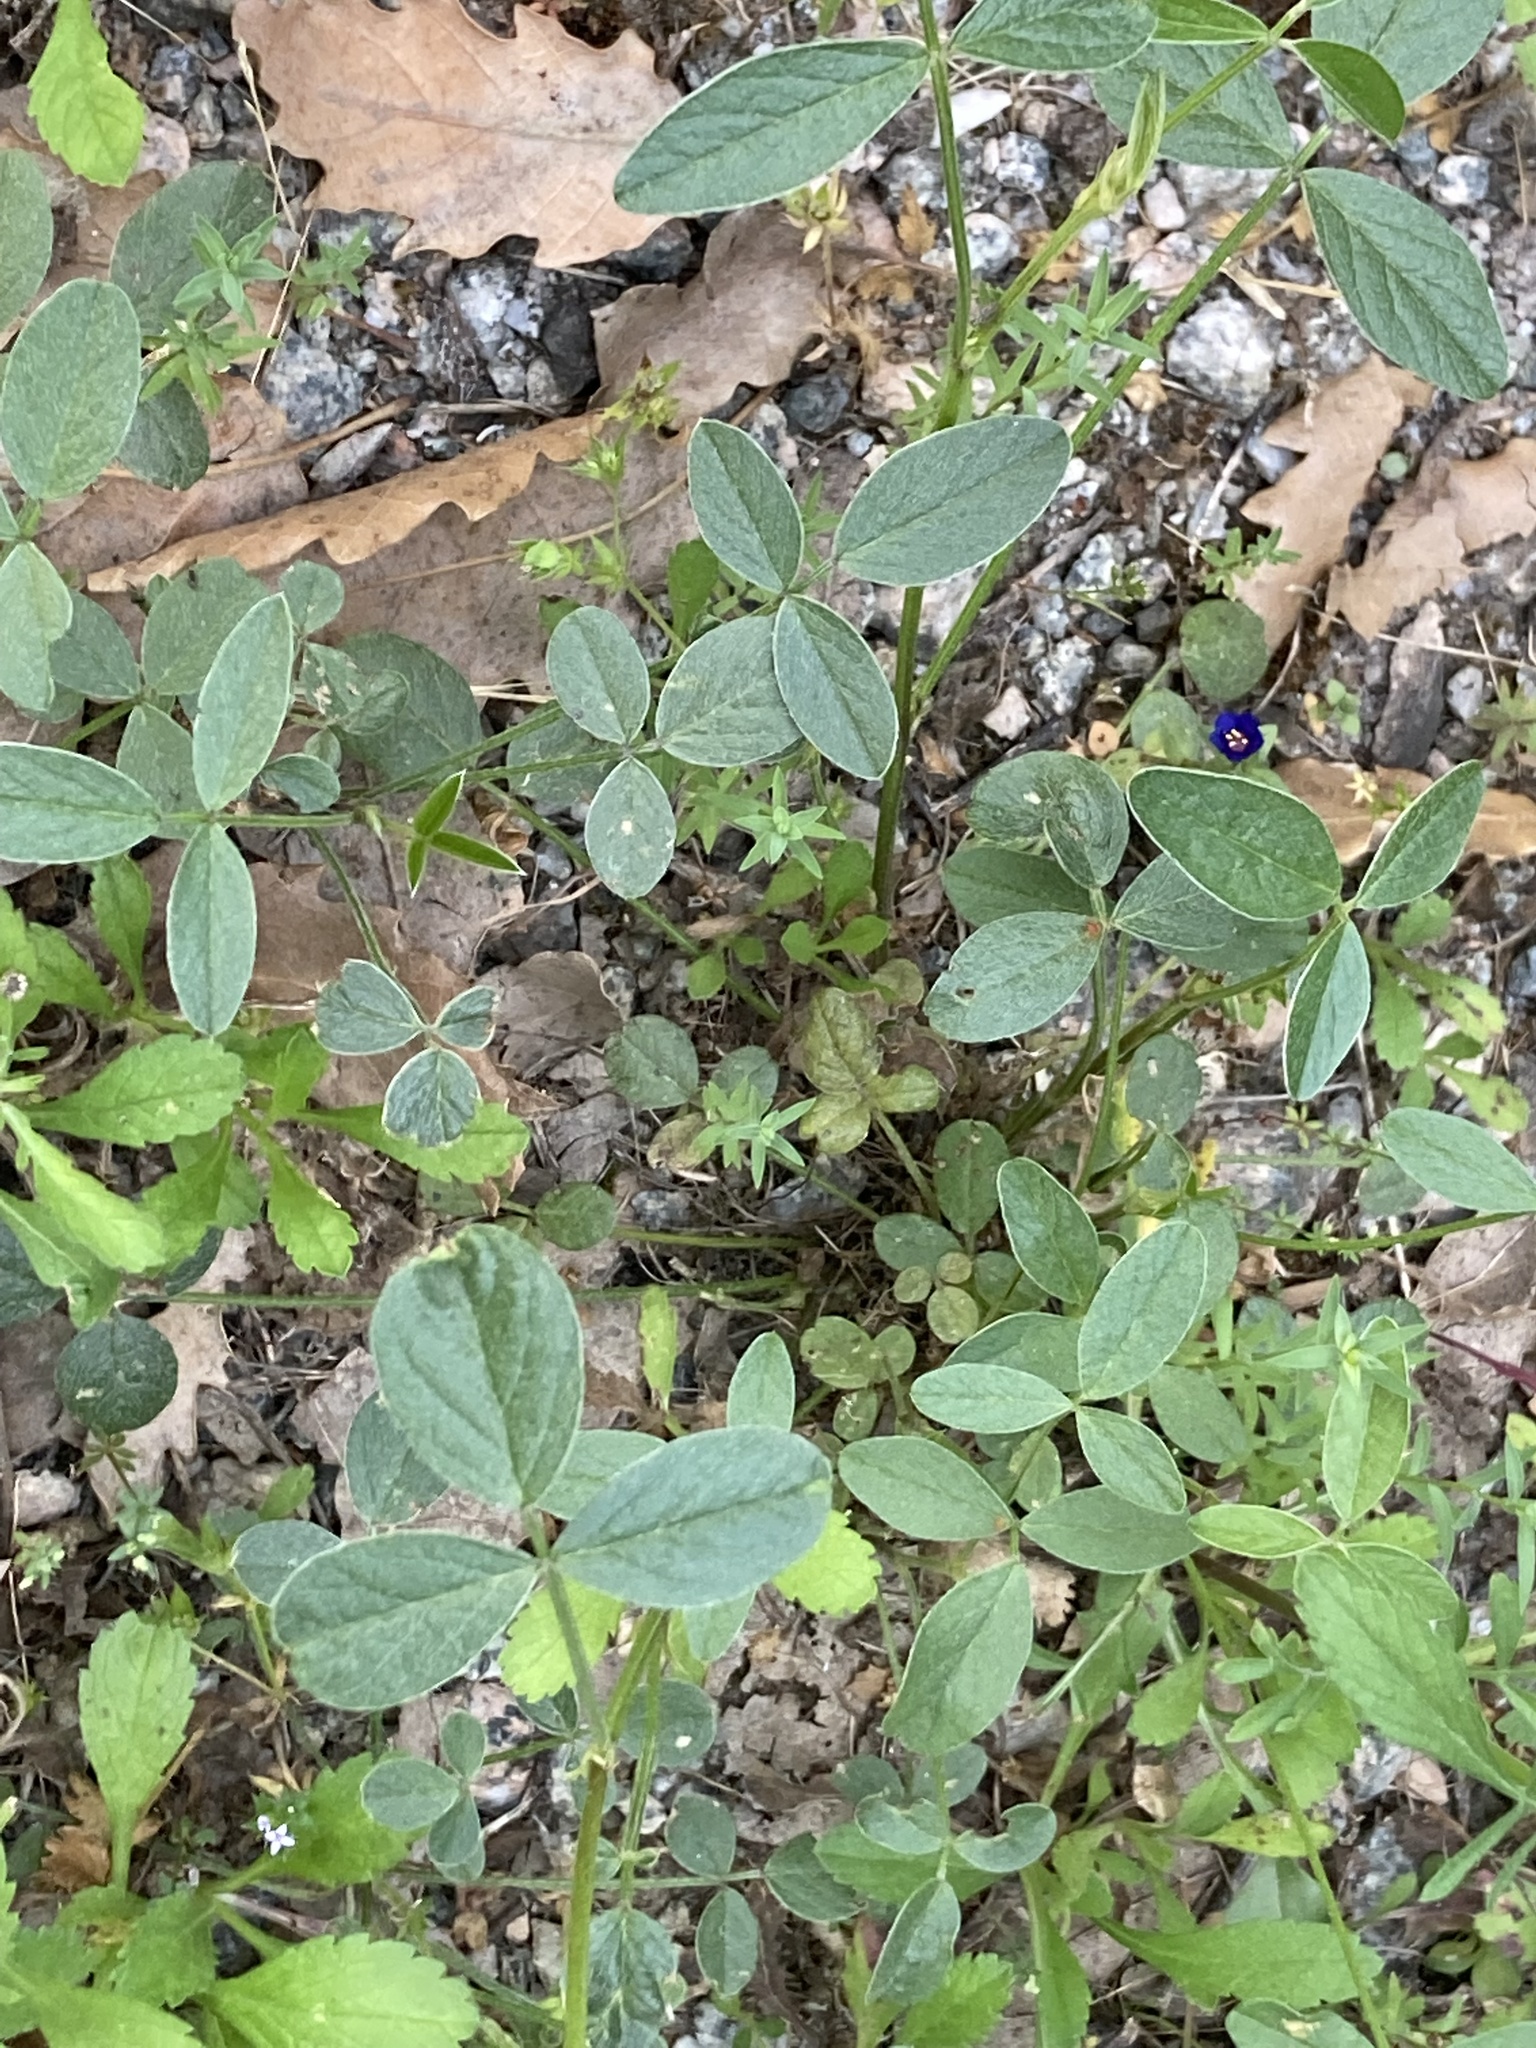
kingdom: Plantae
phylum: Tracheophyta
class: Magnoliopsida
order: Fabales
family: Fabaceae
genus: Bituminaria
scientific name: Bituminaria bituminosa
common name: Arabian pea
